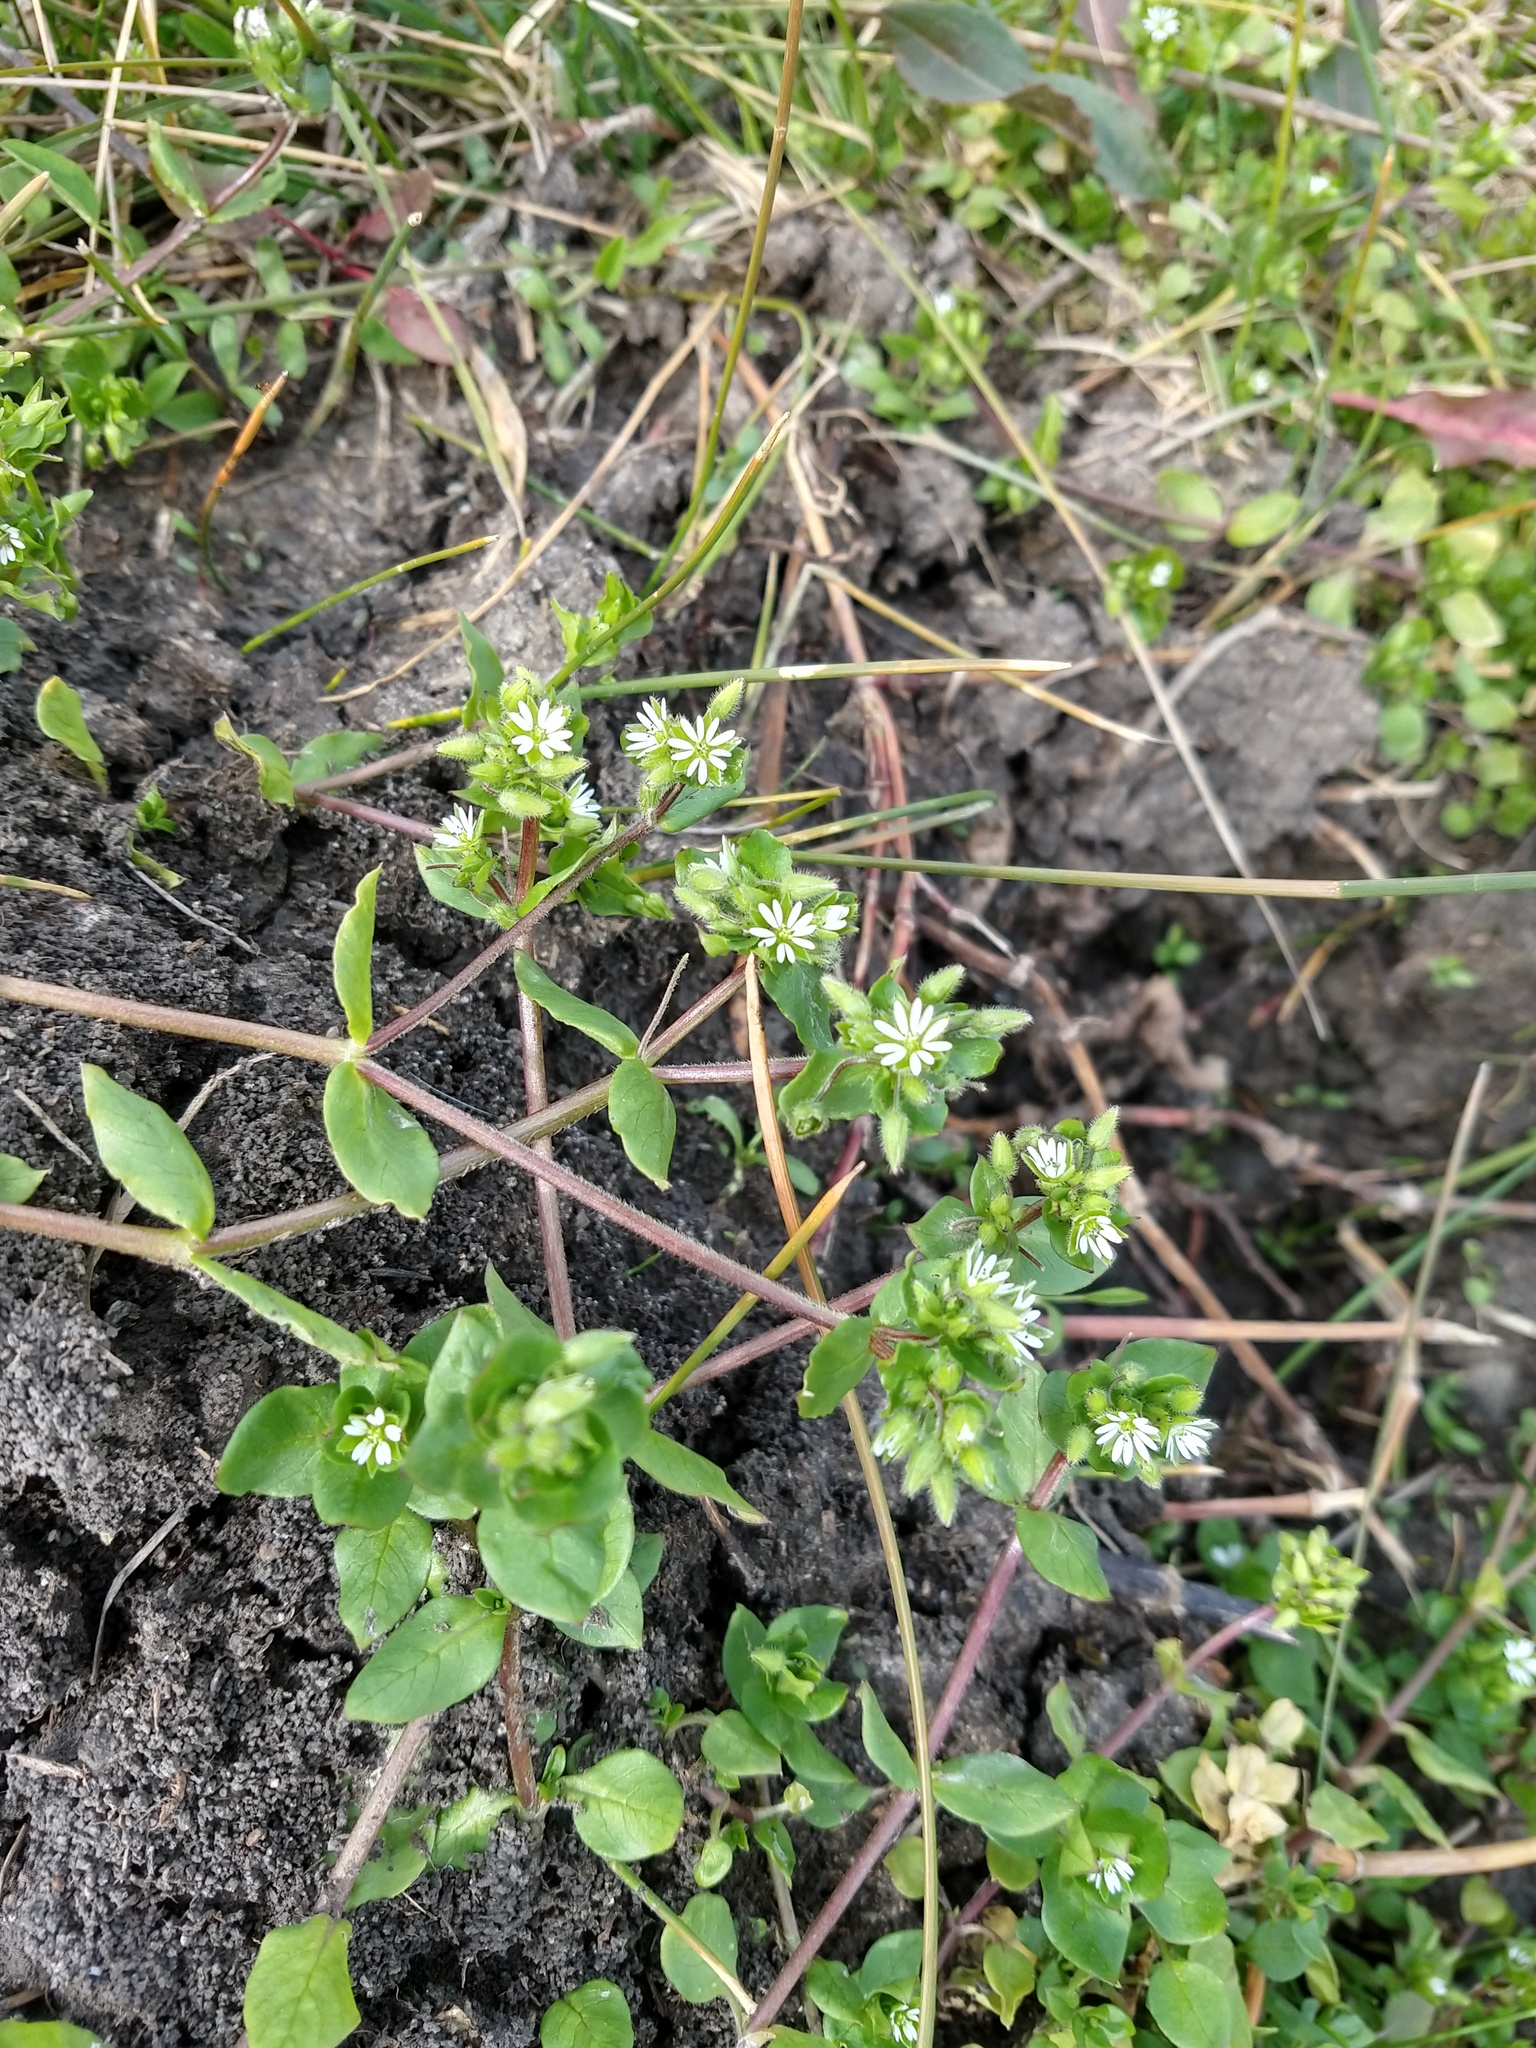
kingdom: Plantae
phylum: Tracheophyta
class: Magnoliopsida
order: Caryophyllales
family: Caryophyllaceae
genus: Stellaria
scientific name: Stellaria media
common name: Common chickweed
